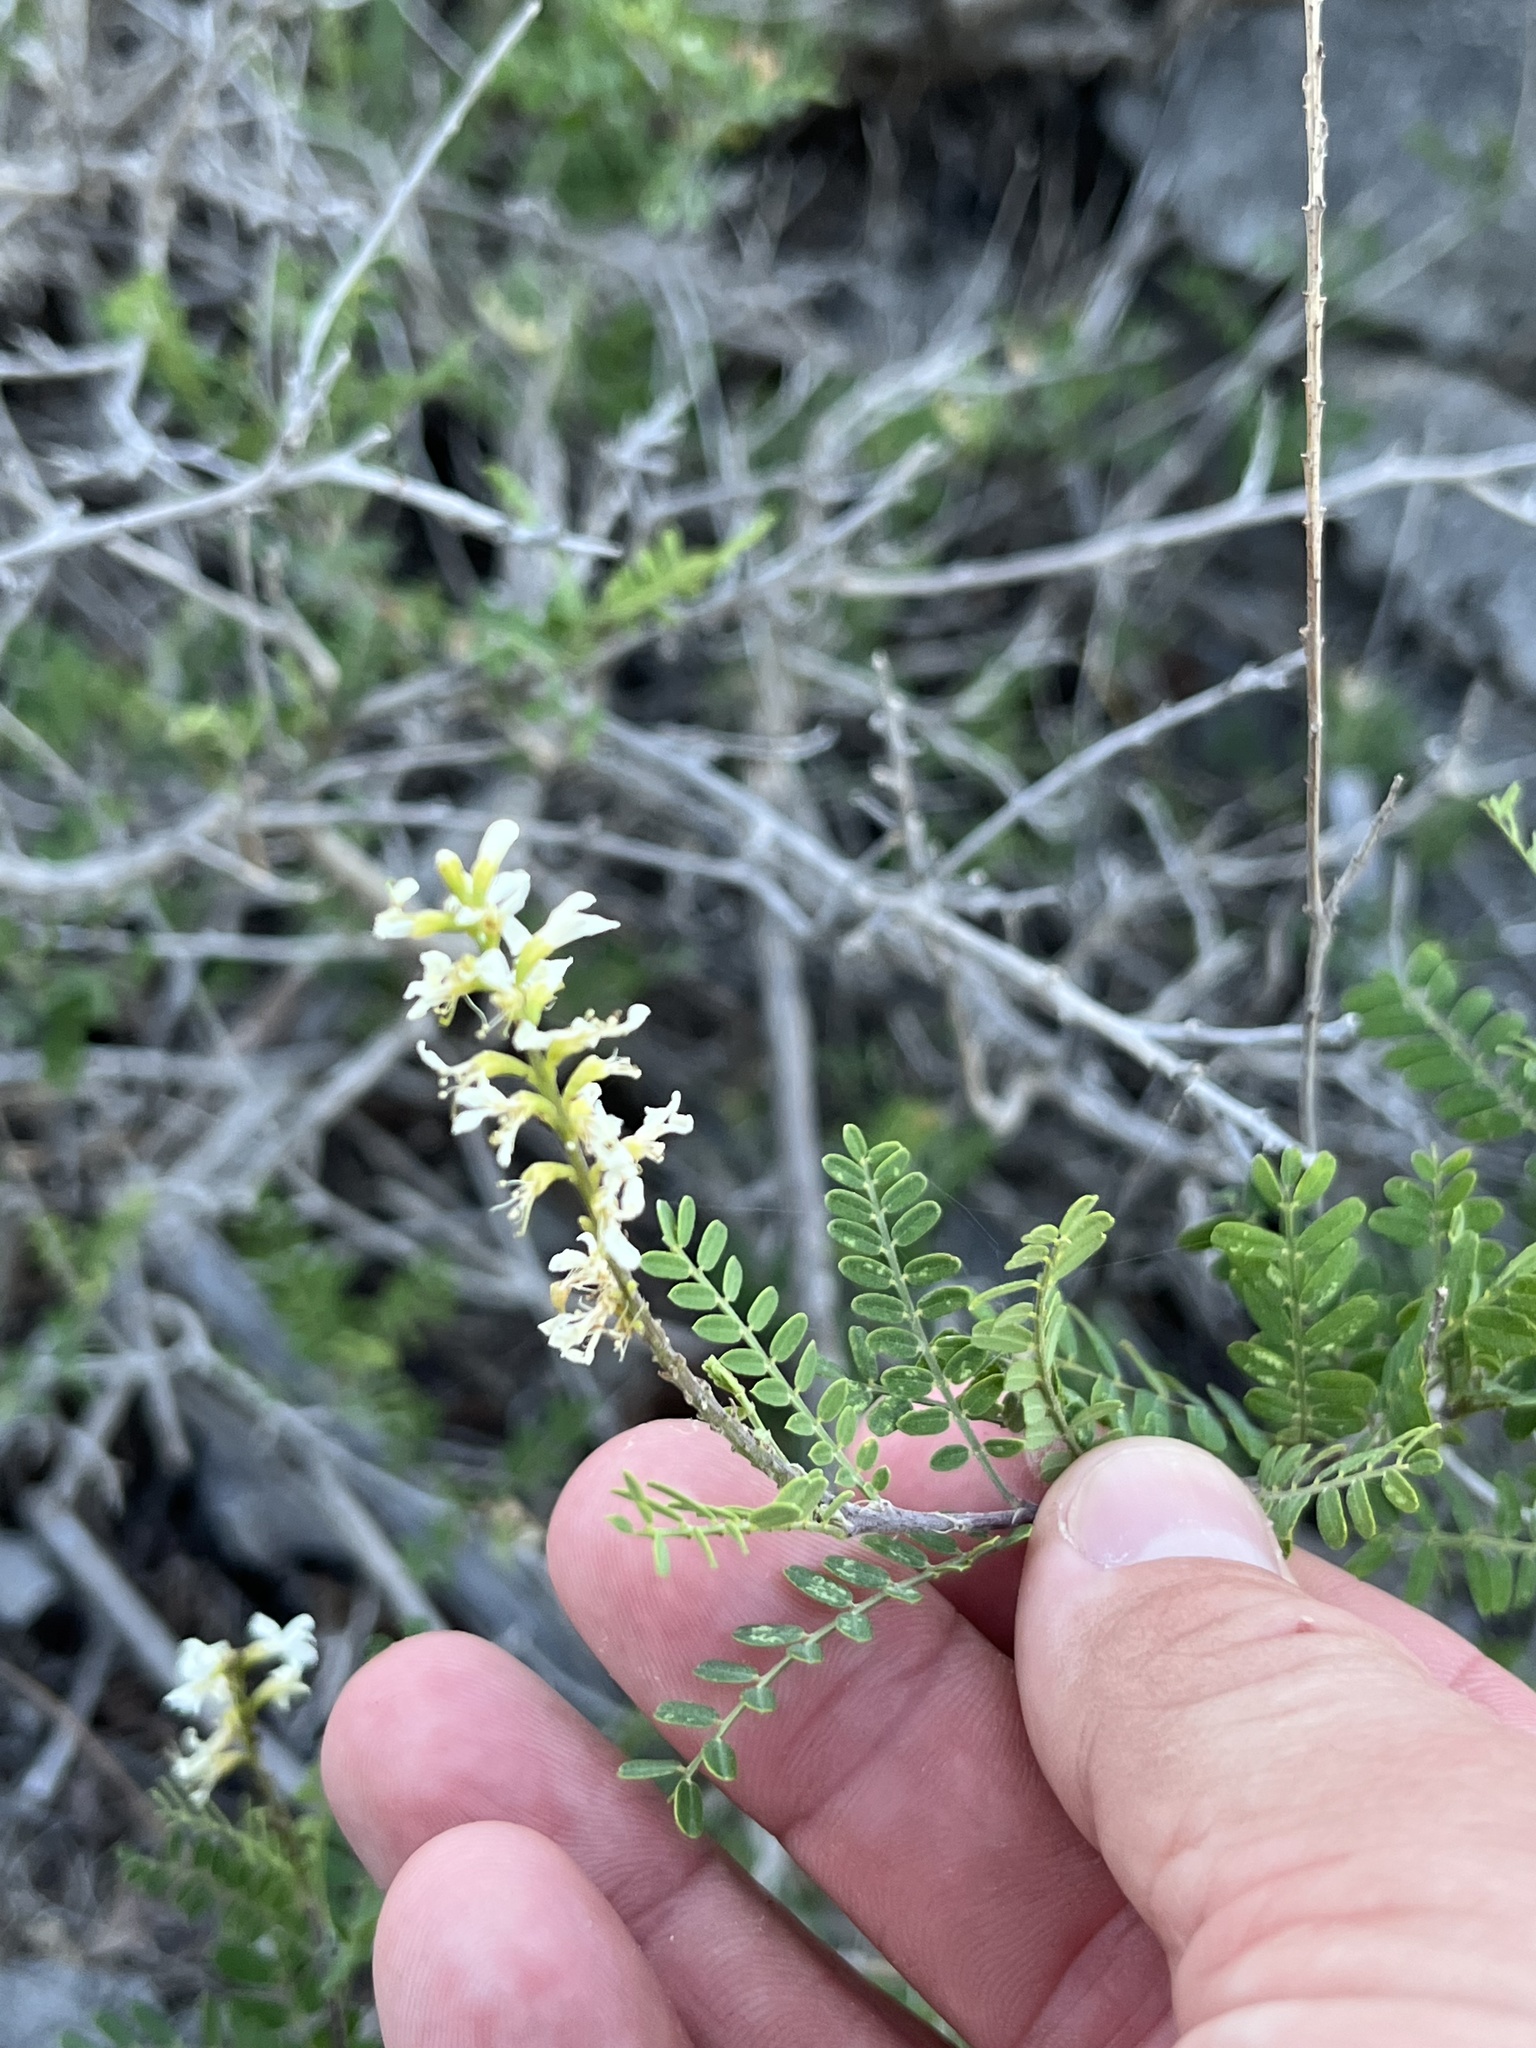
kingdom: Plantae
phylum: Tracheophyta
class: Magnoliopsida
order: Fabales
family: Fabaceae
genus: Eysenhardtia
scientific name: Eysenhardtia texana
